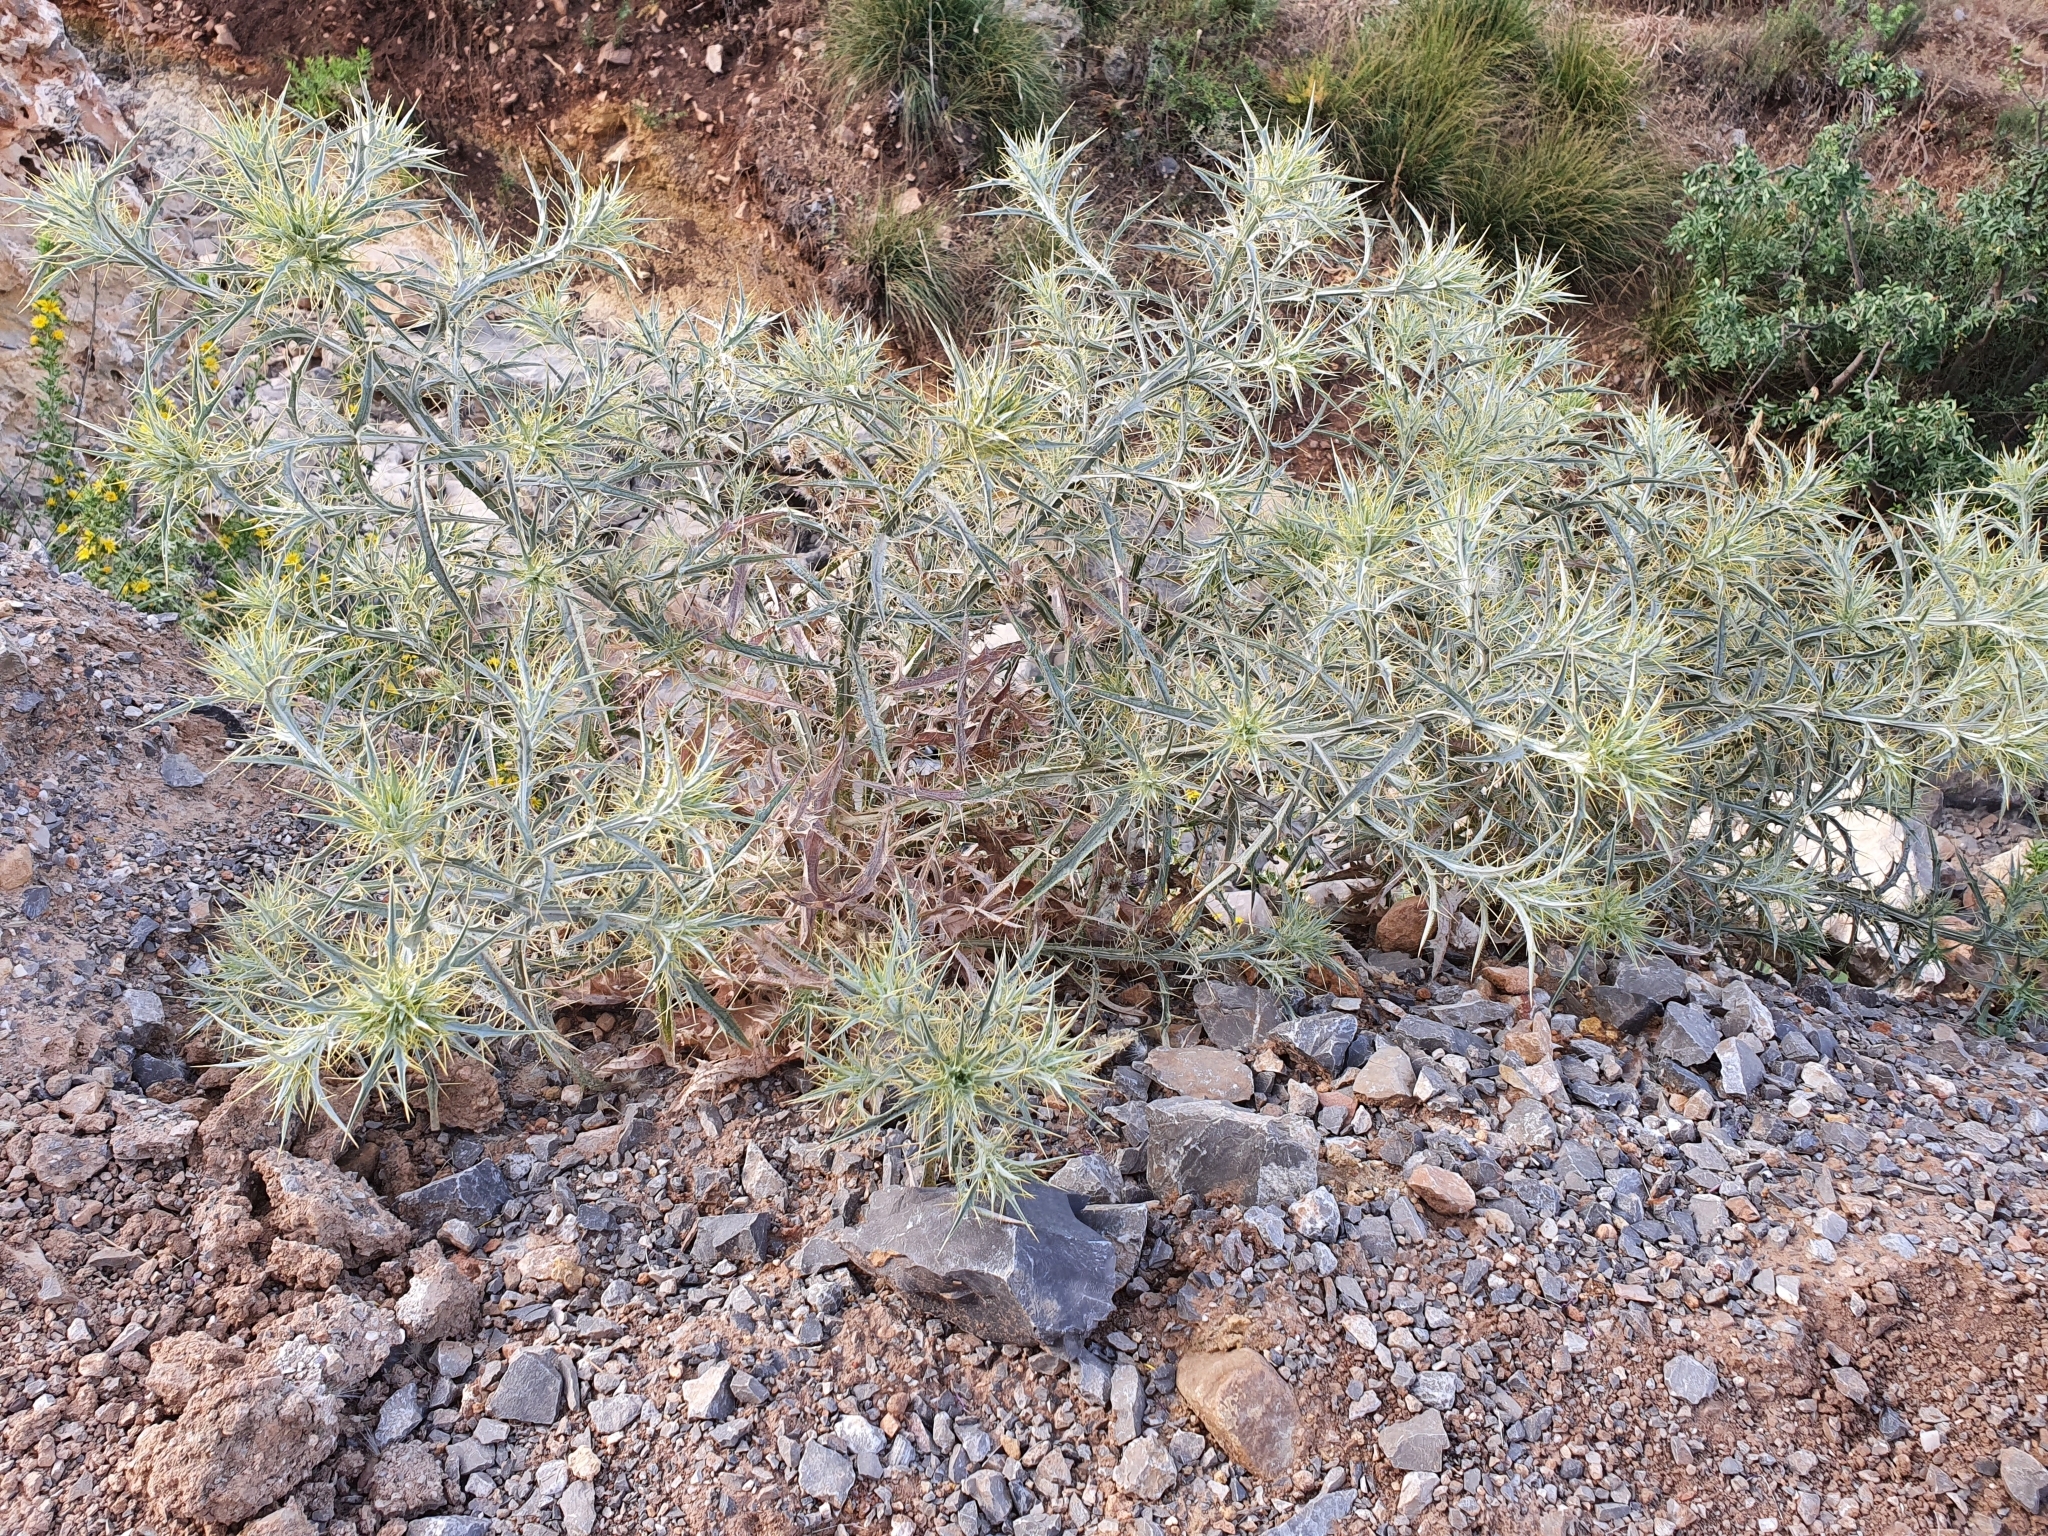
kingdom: Plantae
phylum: Tracheophyta
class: Magnoliopsida
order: Asterales
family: Asteraceae
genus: Picnomon
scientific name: Picnomon acarna
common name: Soldier thistle
